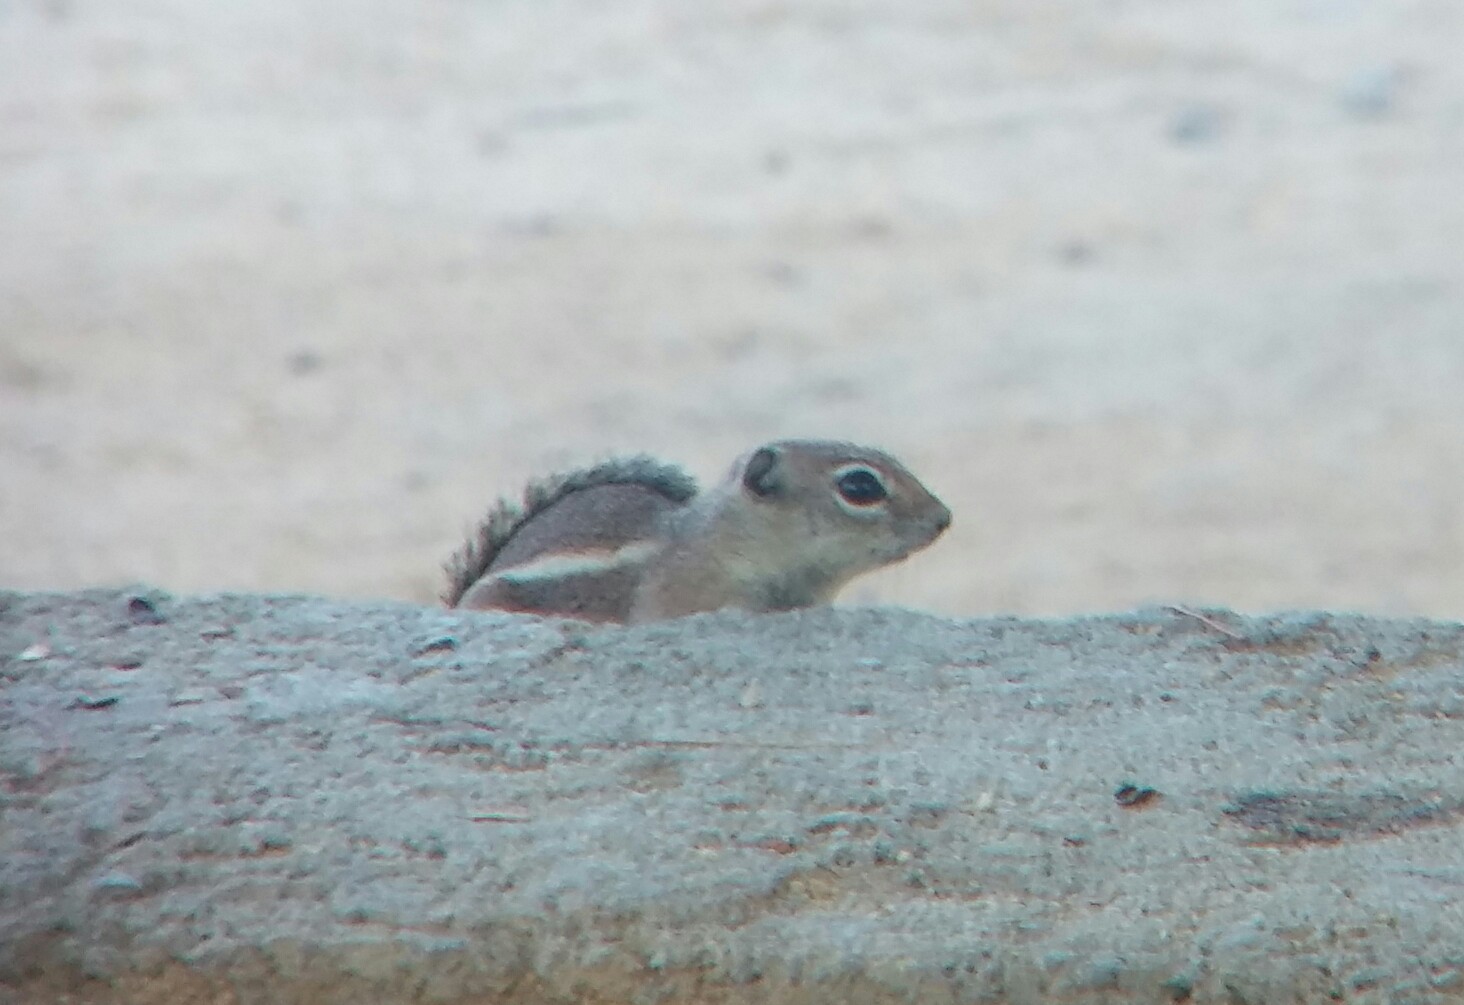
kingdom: Animalia
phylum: Chordata
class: Mammalia
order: Rodentia
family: Sciuridae
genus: Ammospermophilus
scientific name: Ammospermophilus leucurus
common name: White-tailed antelope squirrel
